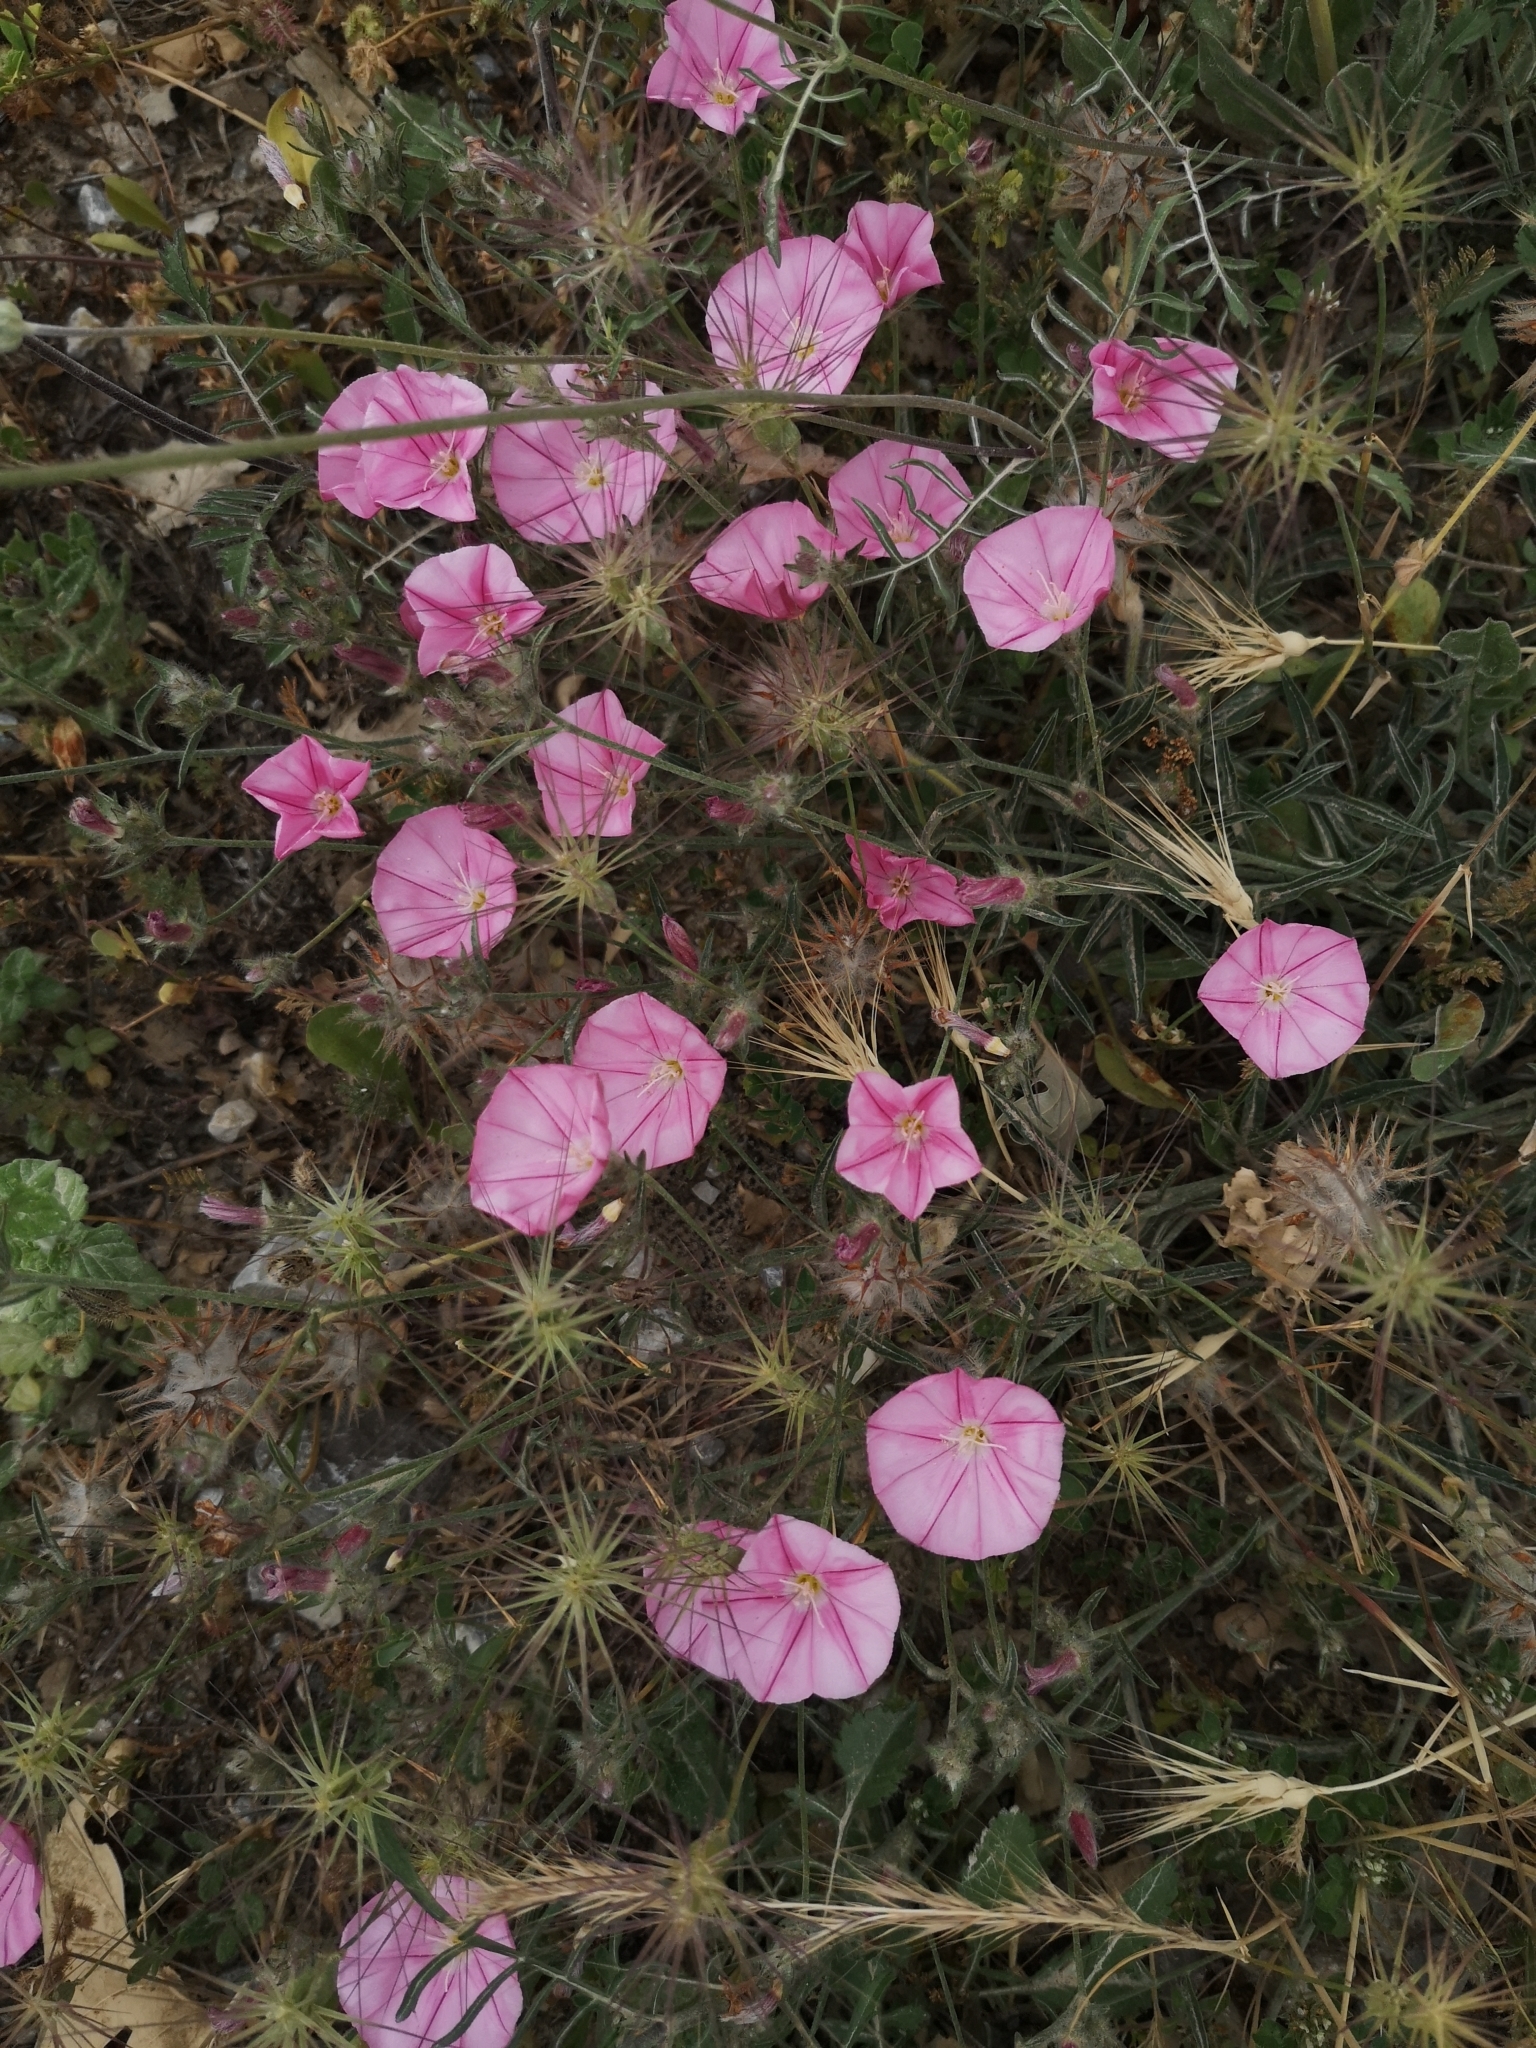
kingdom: Plantae
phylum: Tracheophyta
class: Magnoliopsida
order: Solanales
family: Convolvulaceae
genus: Convolvulus
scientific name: Convolvulus cantabrica
